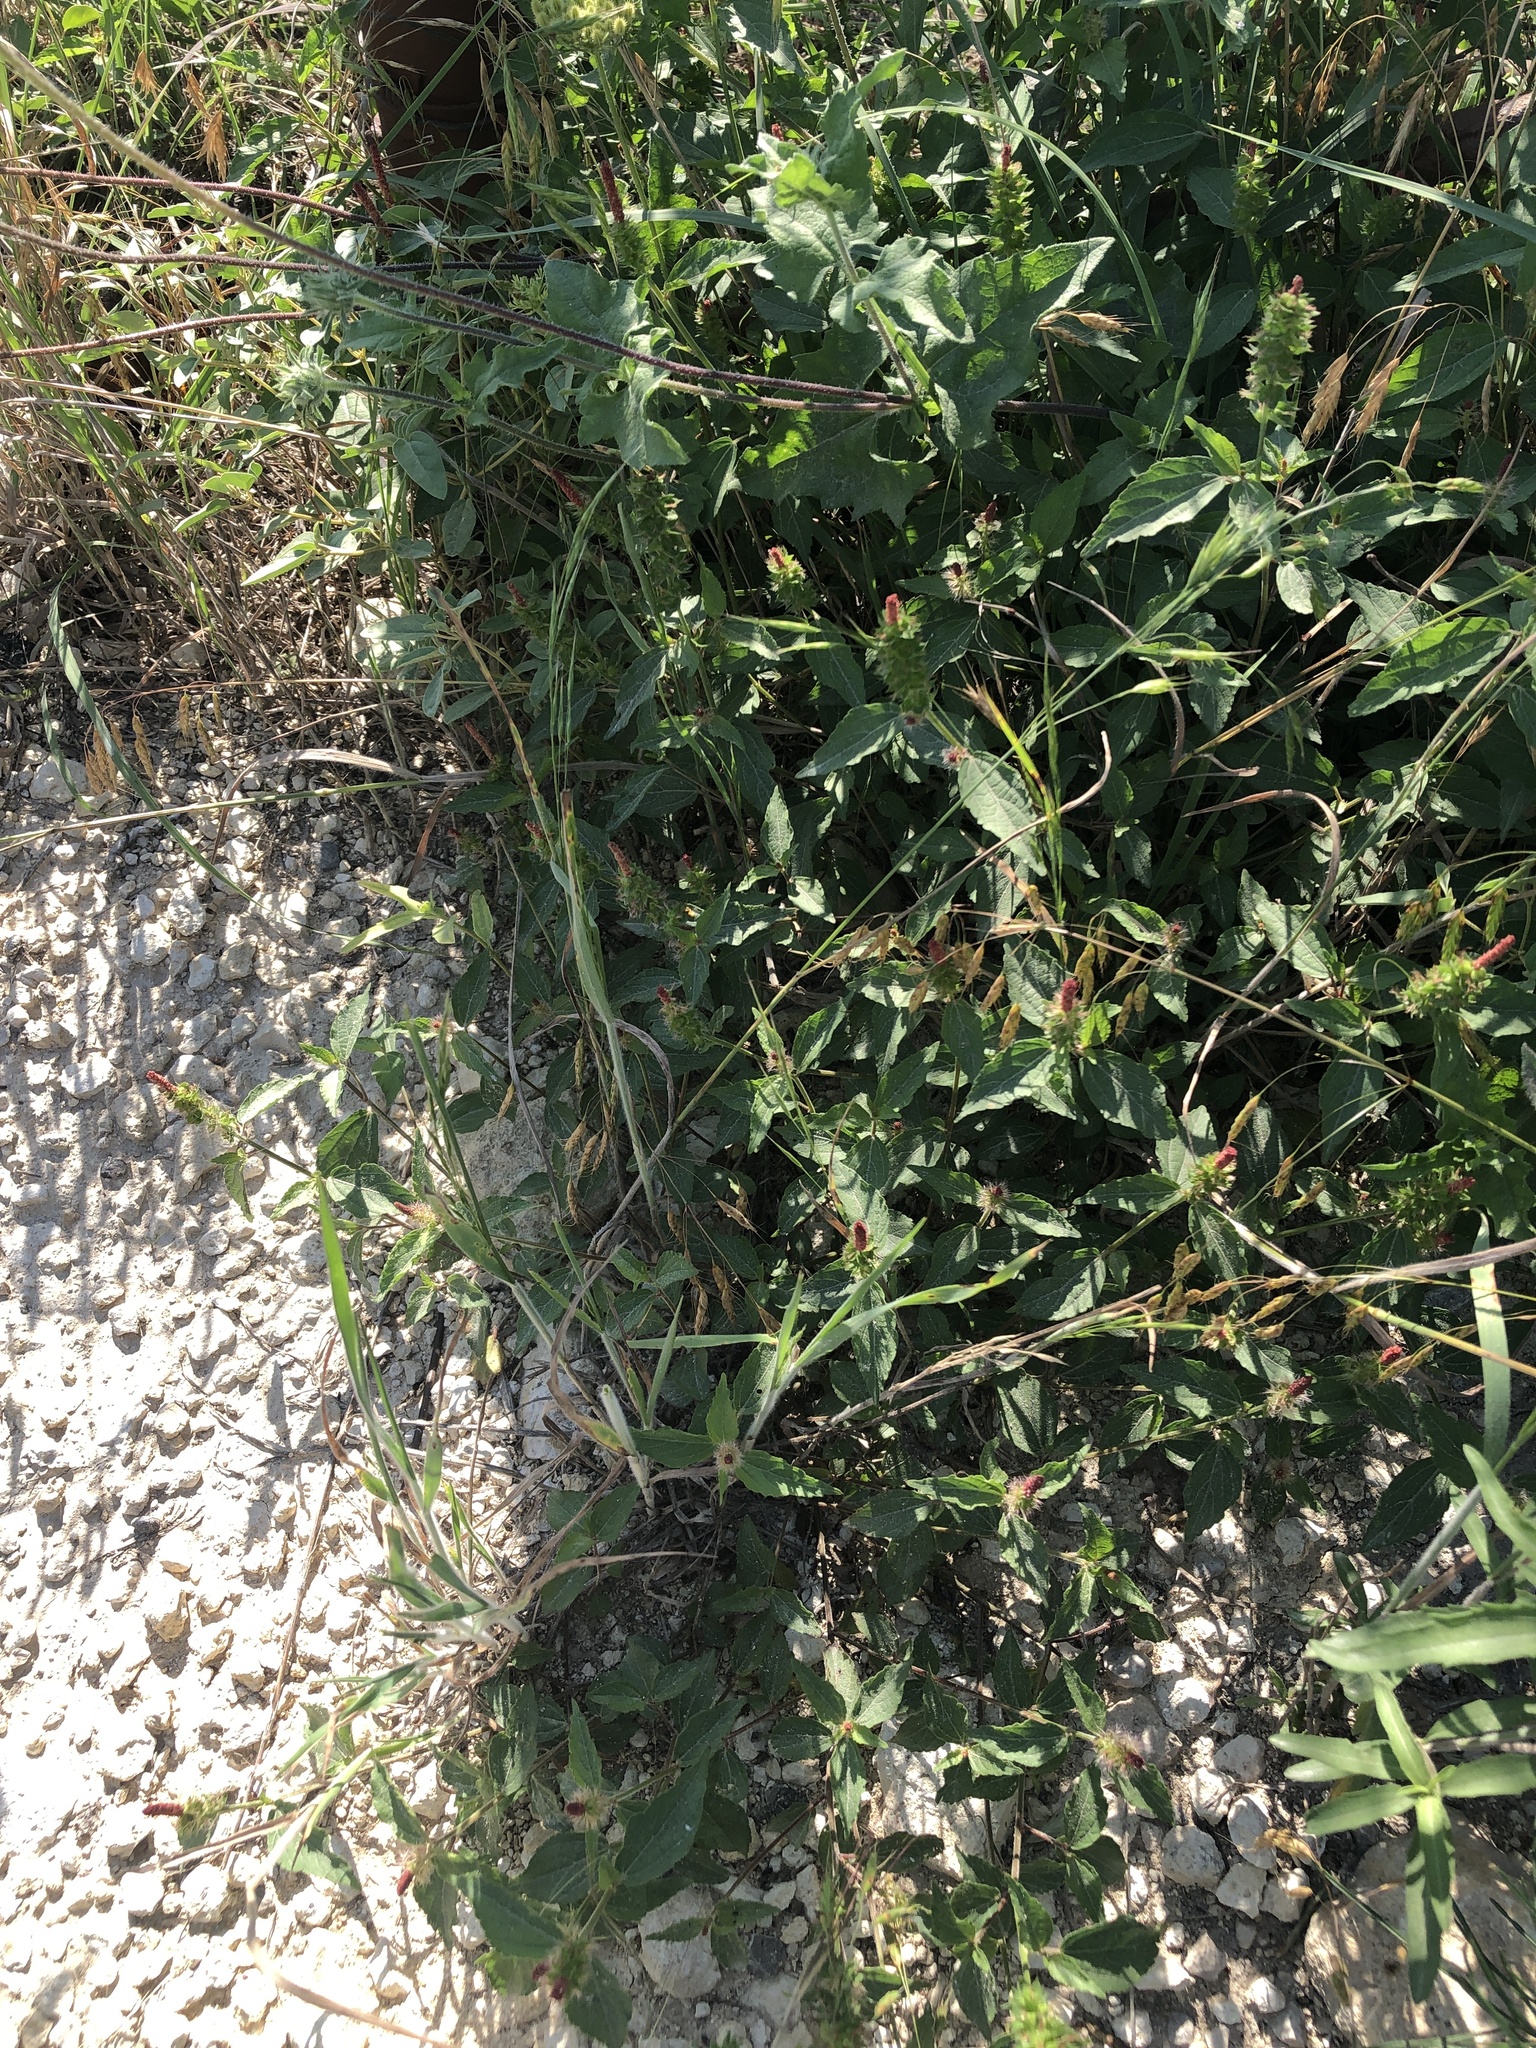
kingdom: Plantae
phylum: Tracheophyta
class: Magnoliopsida
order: Malpighiales
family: Euphorbiaceae
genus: Acalypha
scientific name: Acalypha phleoides
